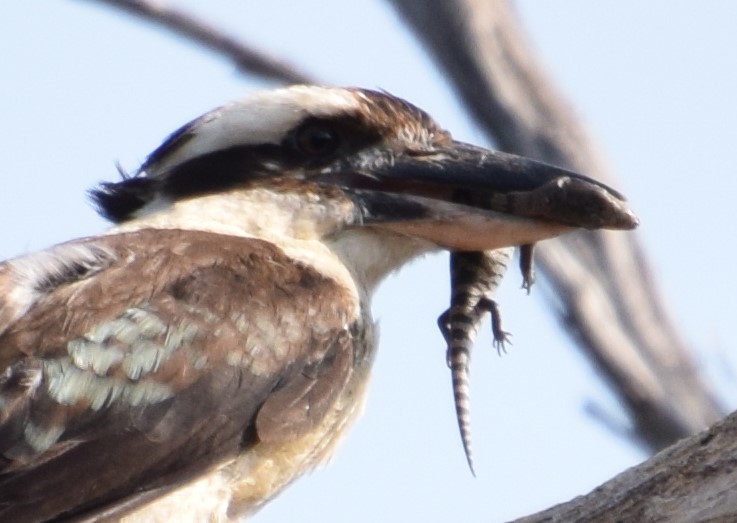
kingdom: Animalia
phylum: Chordata
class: Squamata
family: Scincidae
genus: Tiliqua
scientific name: Tiliqua scincoides
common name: Common bluetongue
